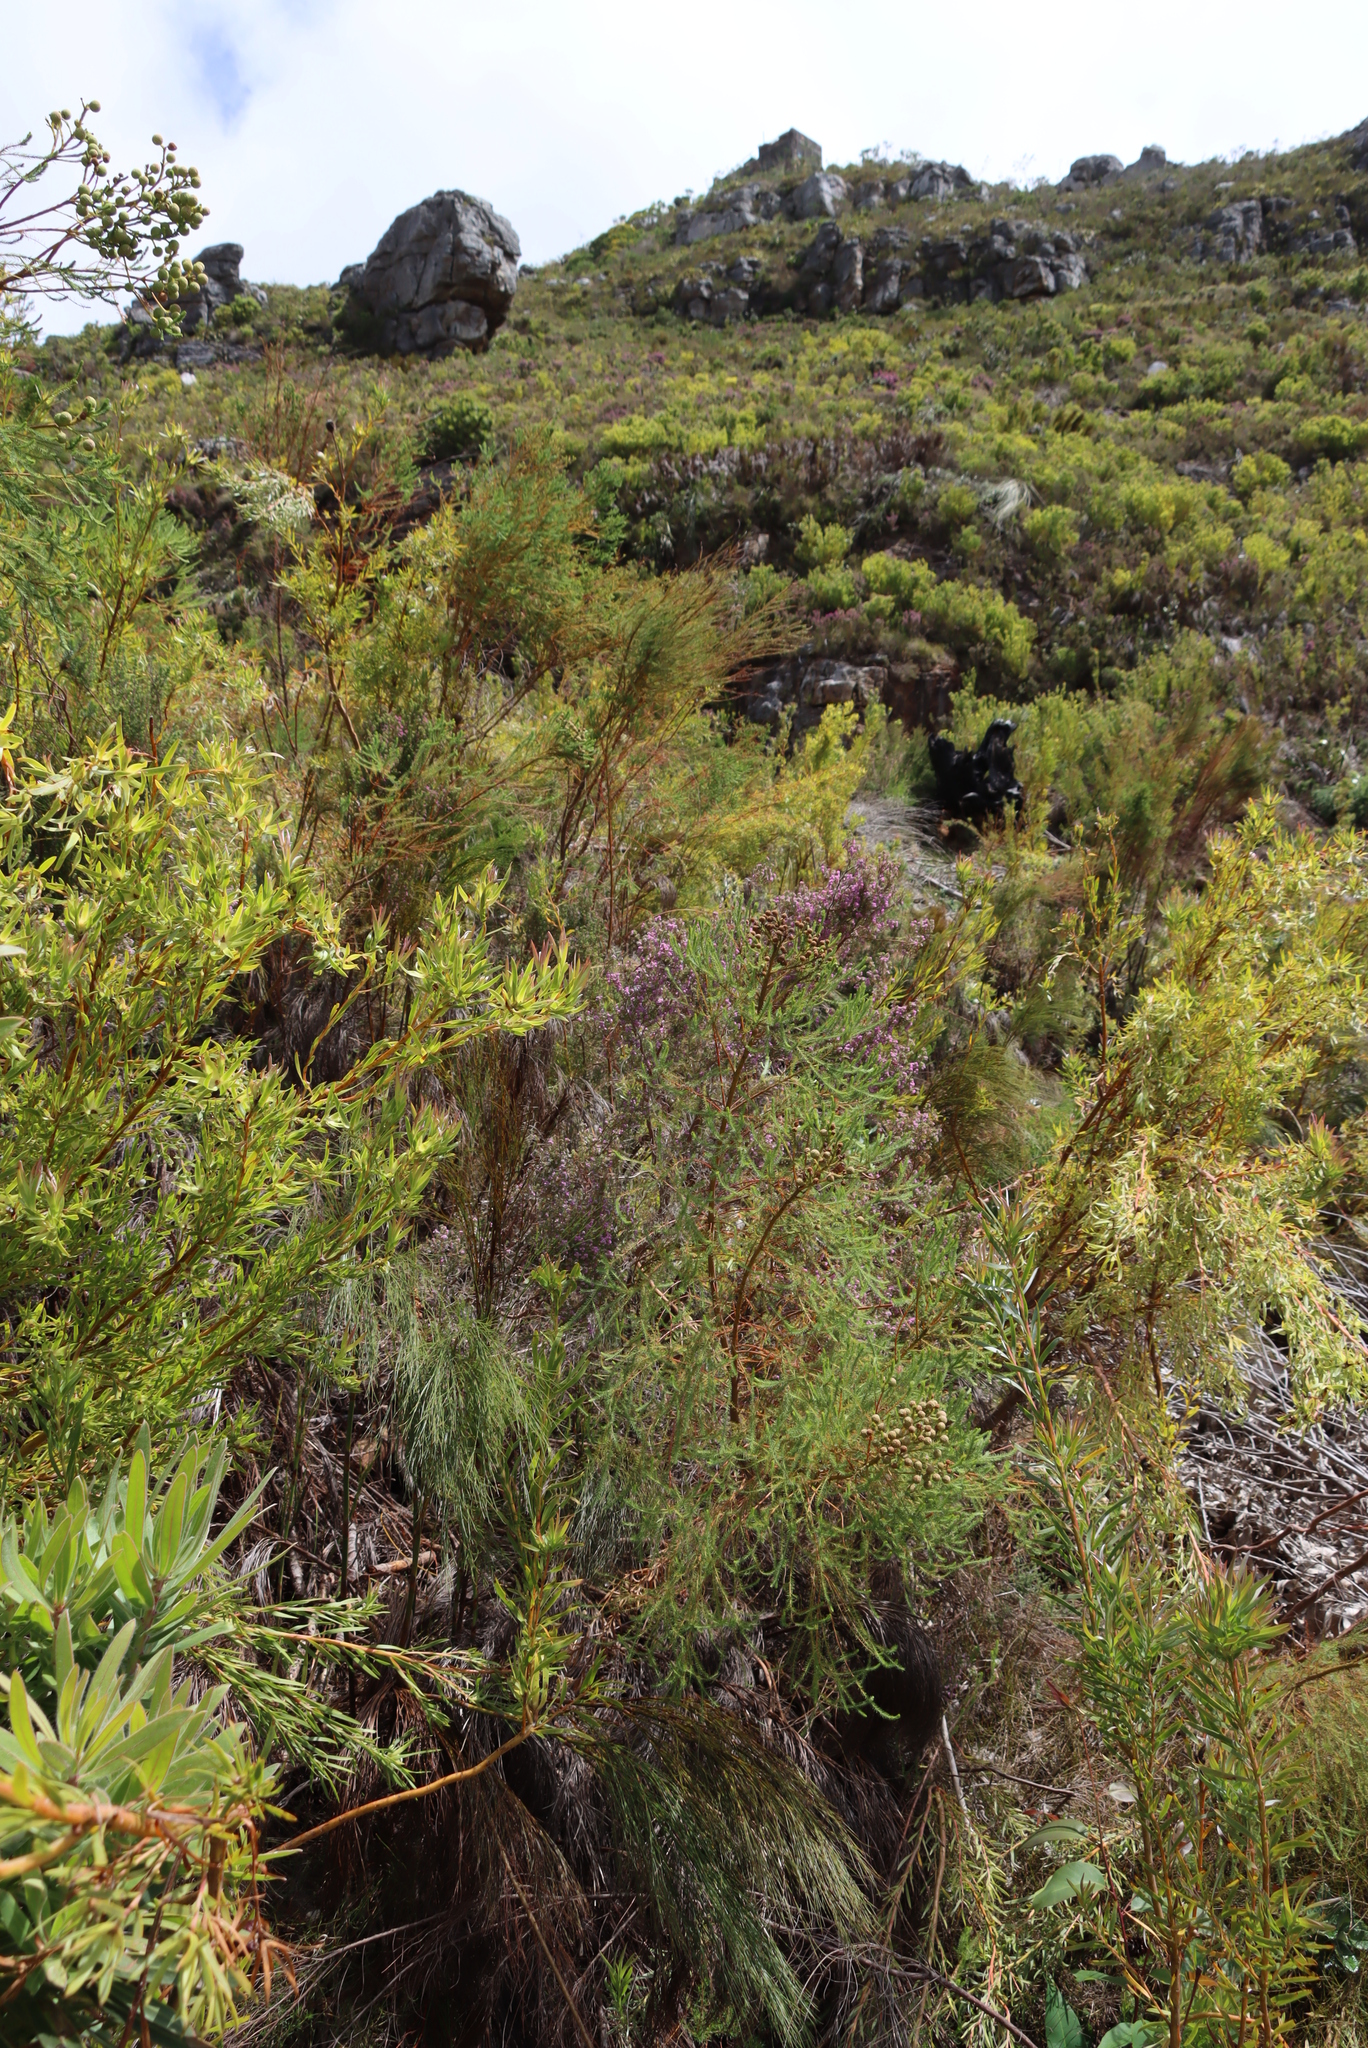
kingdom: Plantae
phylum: Tracheophyta
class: Magnoliopsida
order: Laurales
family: Lauraceae
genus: Cassytha
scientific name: Cassytha ciliolata
